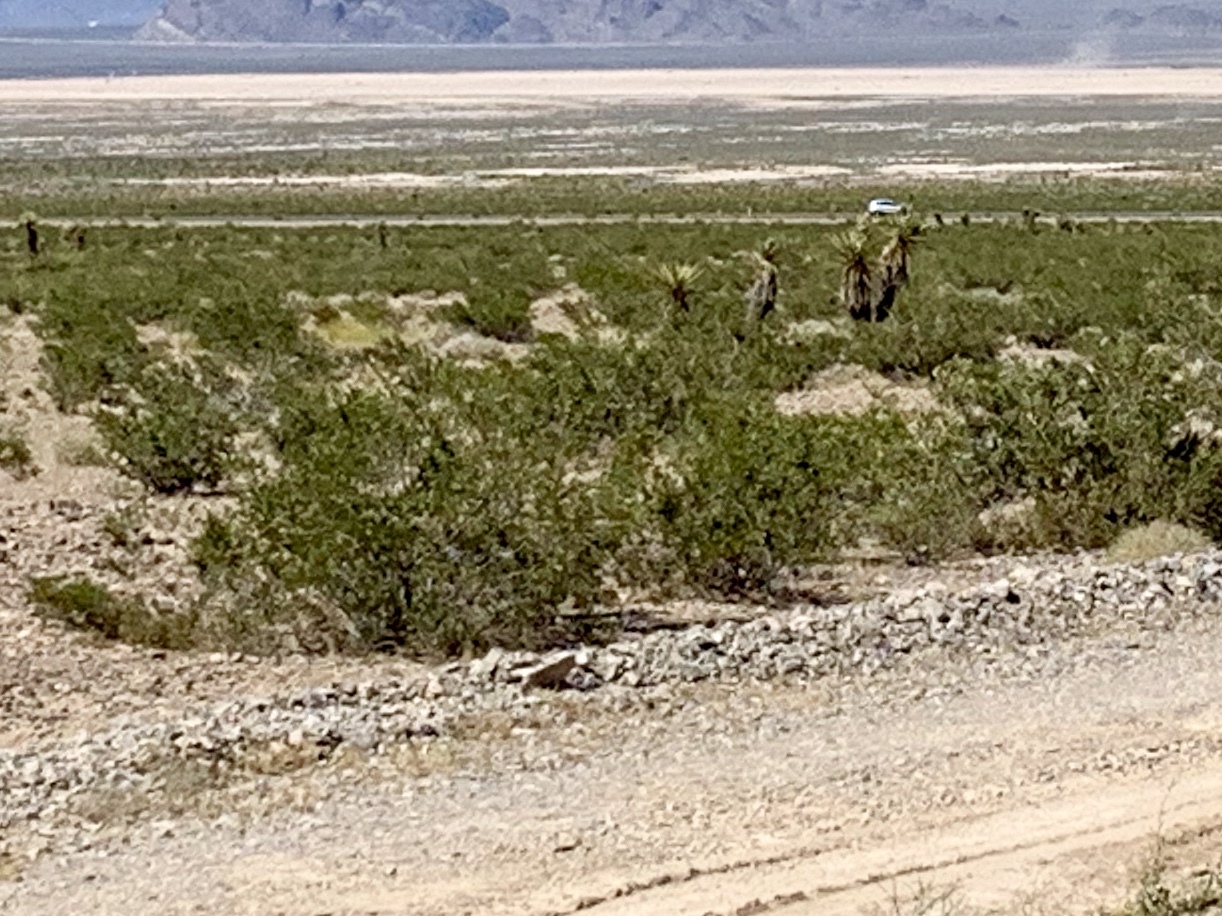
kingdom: Plantae
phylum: Tracheophyta
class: Magnoliopsida
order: Zygophyllales
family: Zygophyllaceae
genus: Larrea
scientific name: Larrea tridentata
